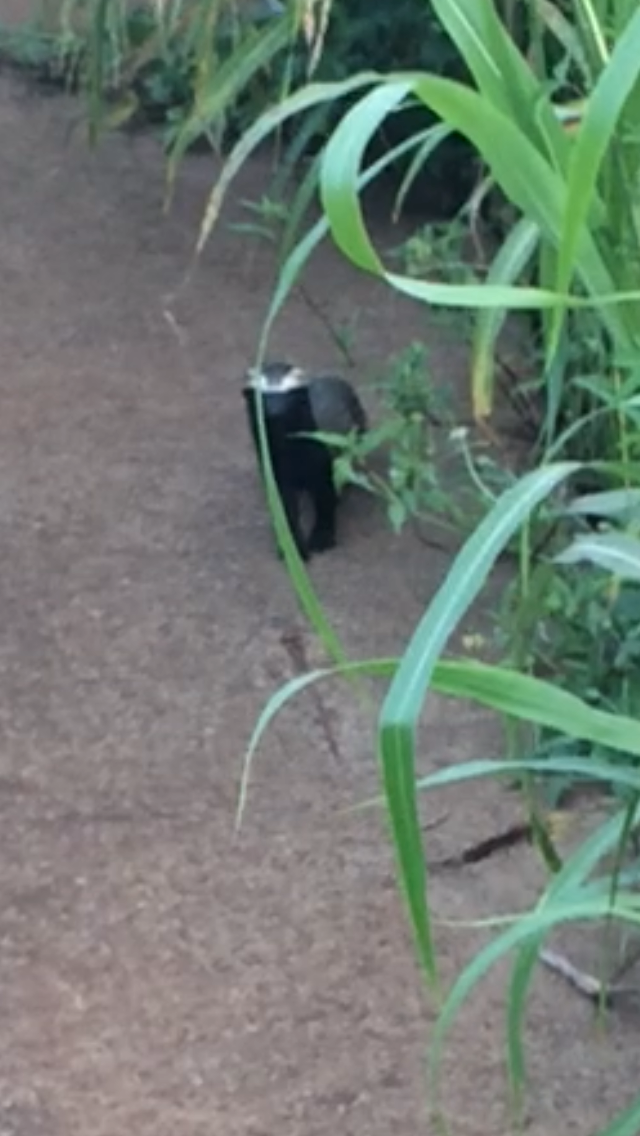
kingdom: Animalia
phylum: Chordata
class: Mammalia
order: Carnivora
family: Mustelidae
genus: Galictis
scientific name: Galictis cuja
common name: Lesser grison
